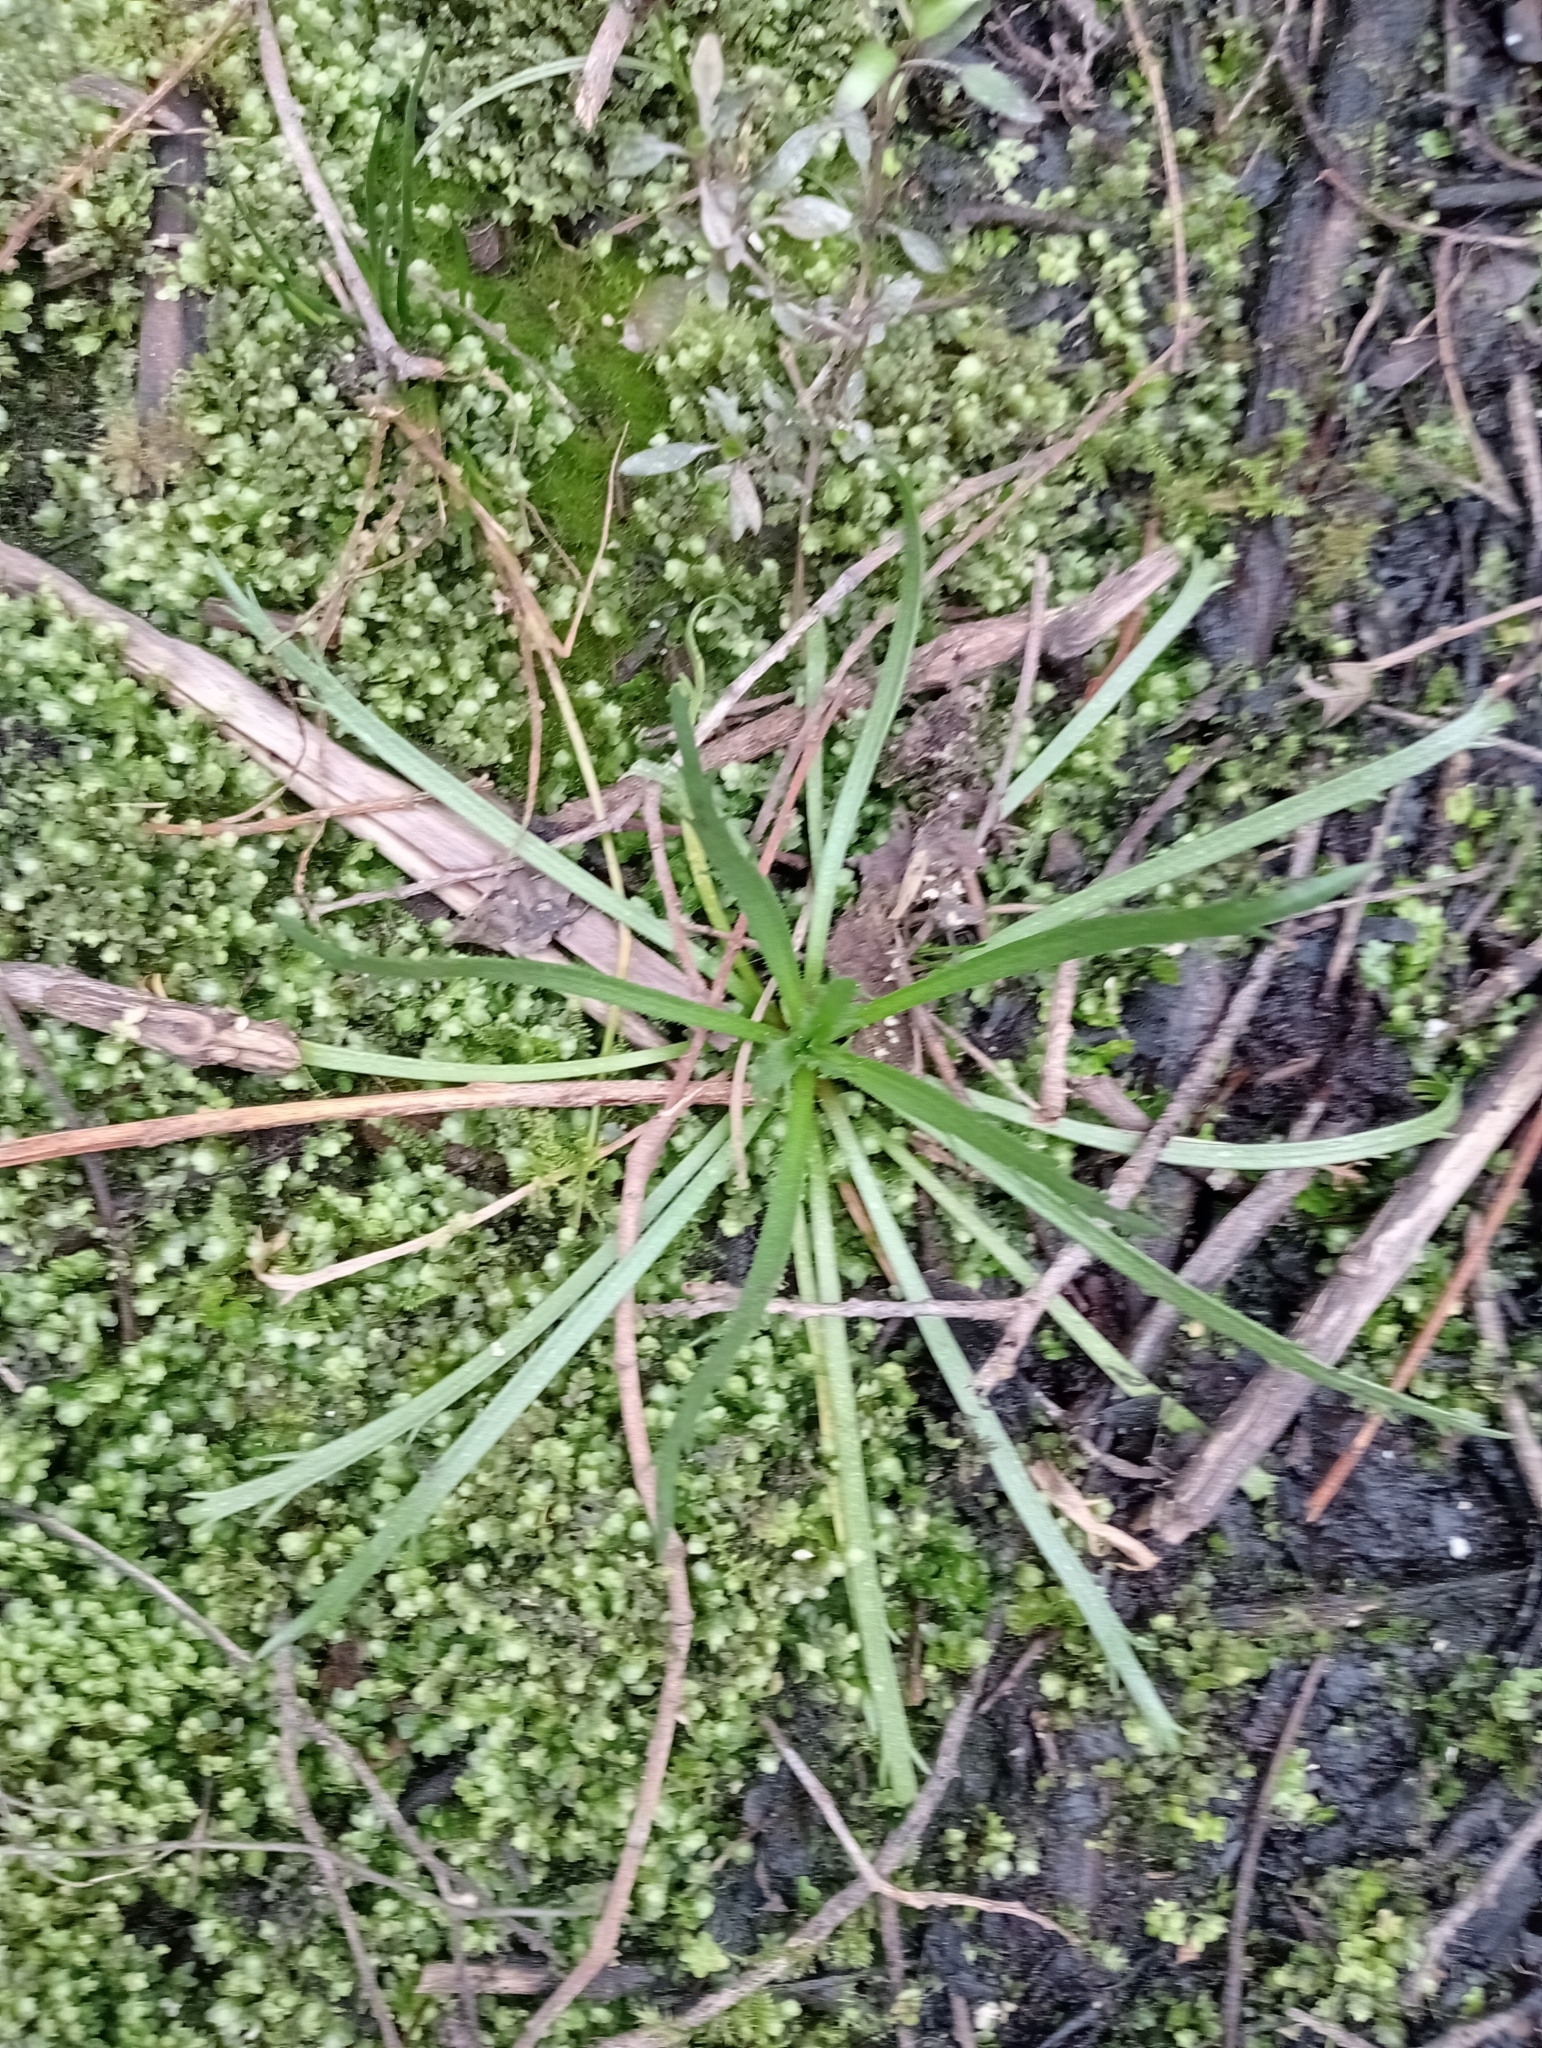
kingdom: Plantae
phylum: Tracheophyta
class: Magnoliopsida
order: Lamiales
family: Plantaginaceae
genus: Plantago
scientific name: Plantago coronopus
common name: Buck's-horn plantain
